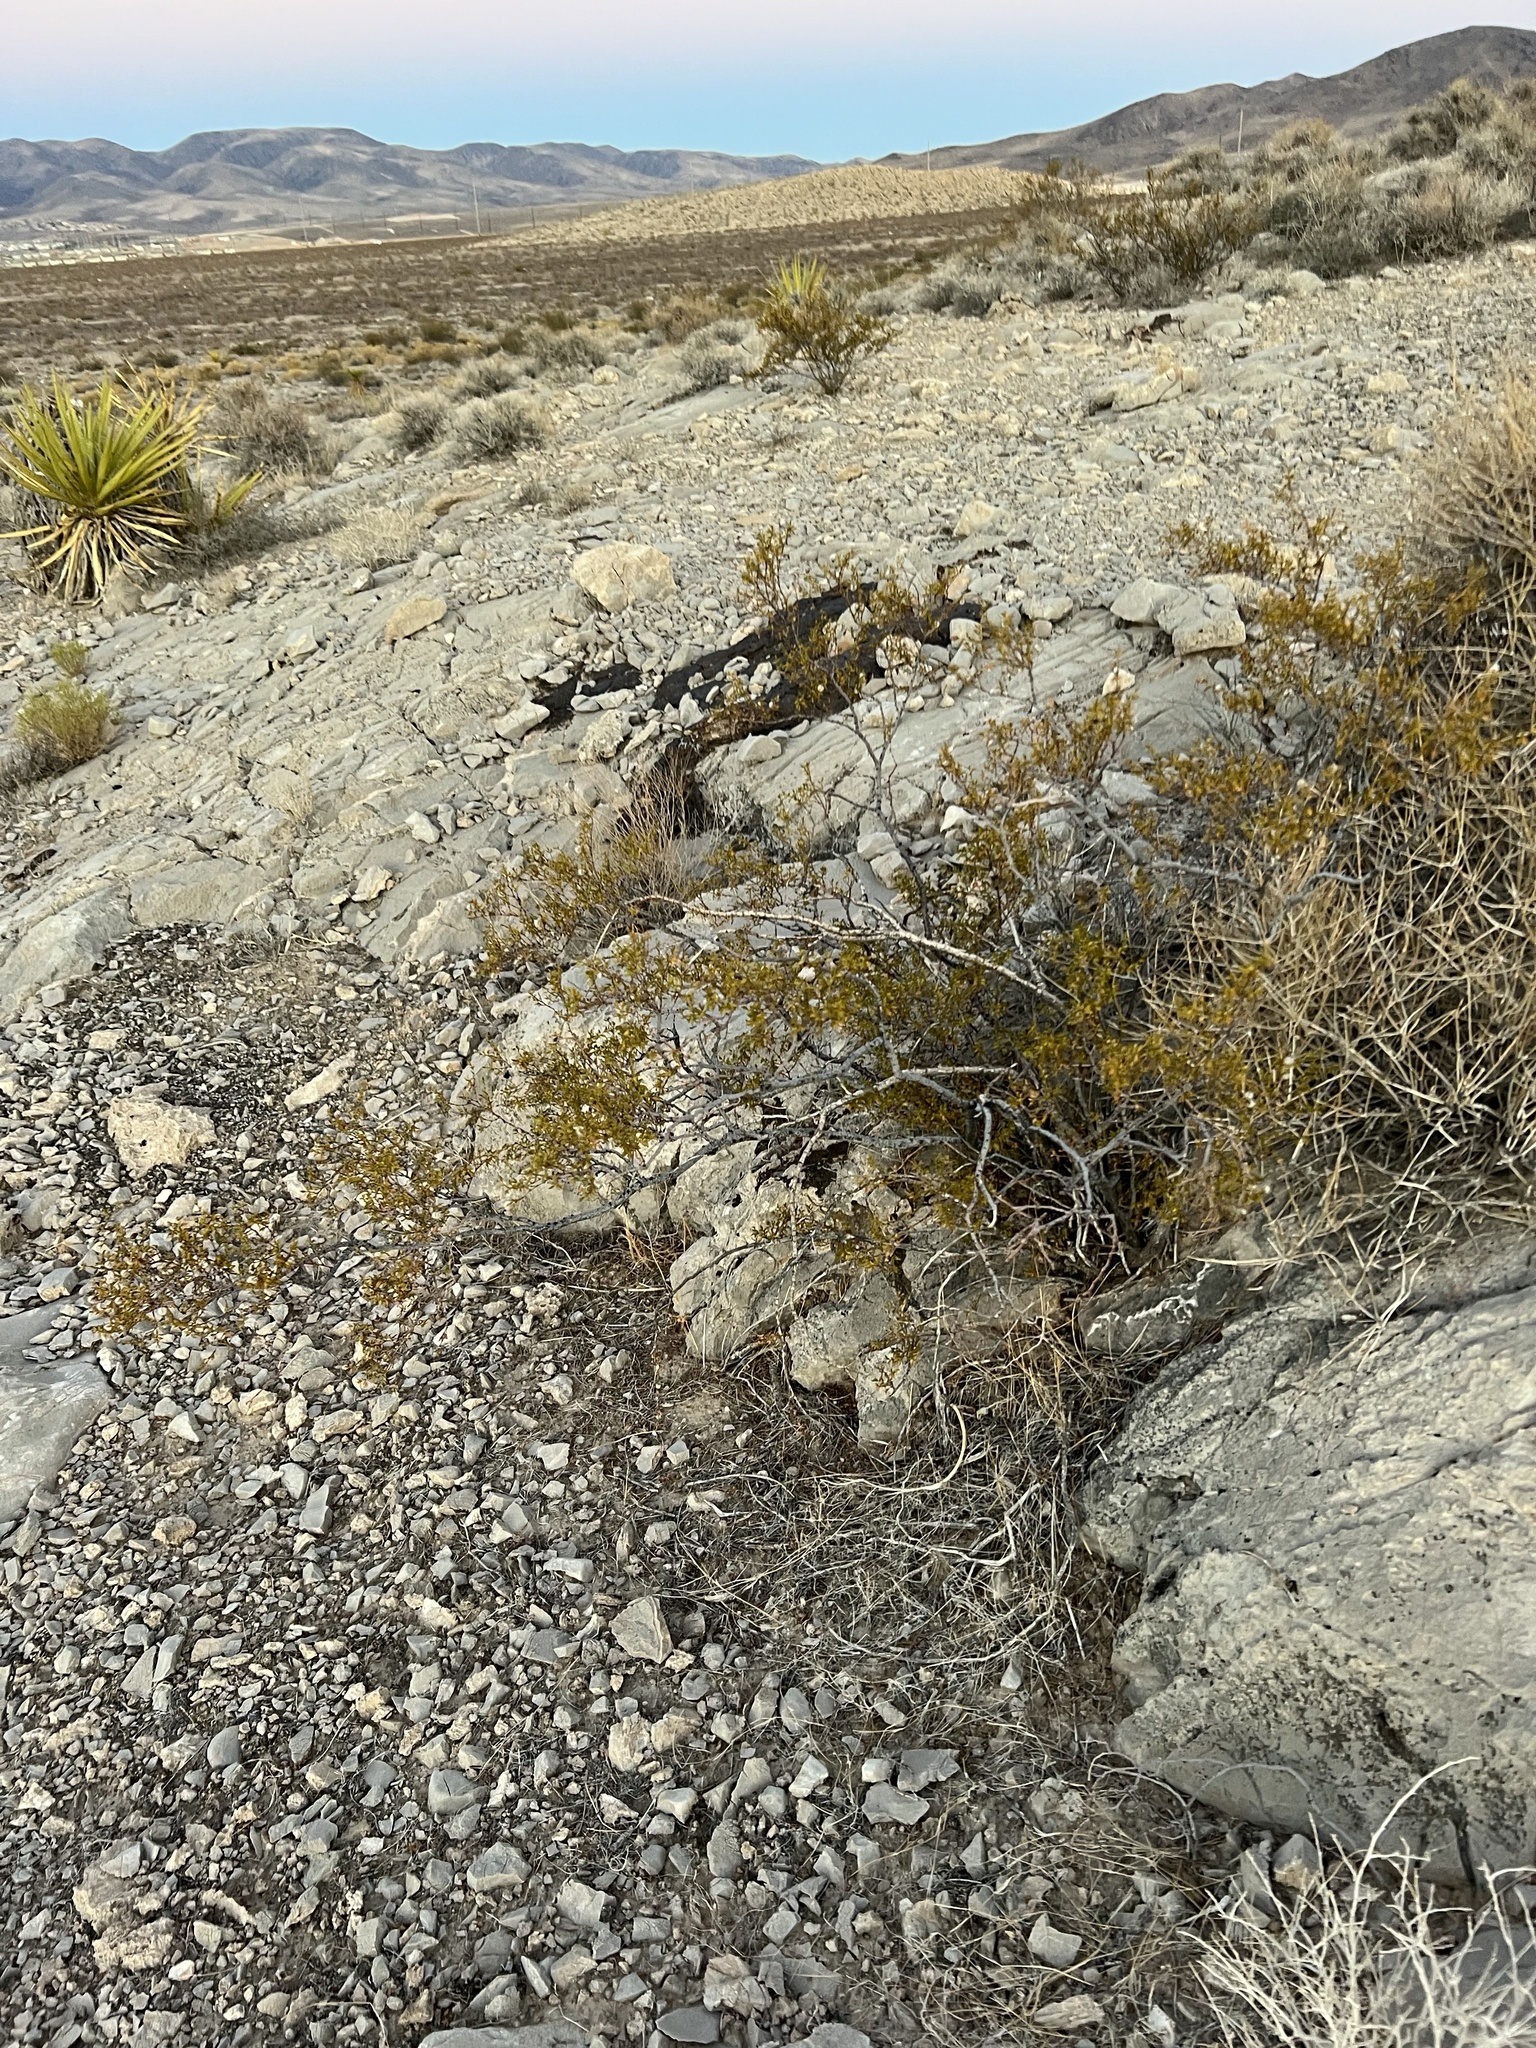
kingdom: Plantae
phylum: Tracheophyta
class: Magnoliopsida
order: Zygophyllales
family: Zygophyllaceae
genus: Larrea
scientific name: Larrea tridentata
